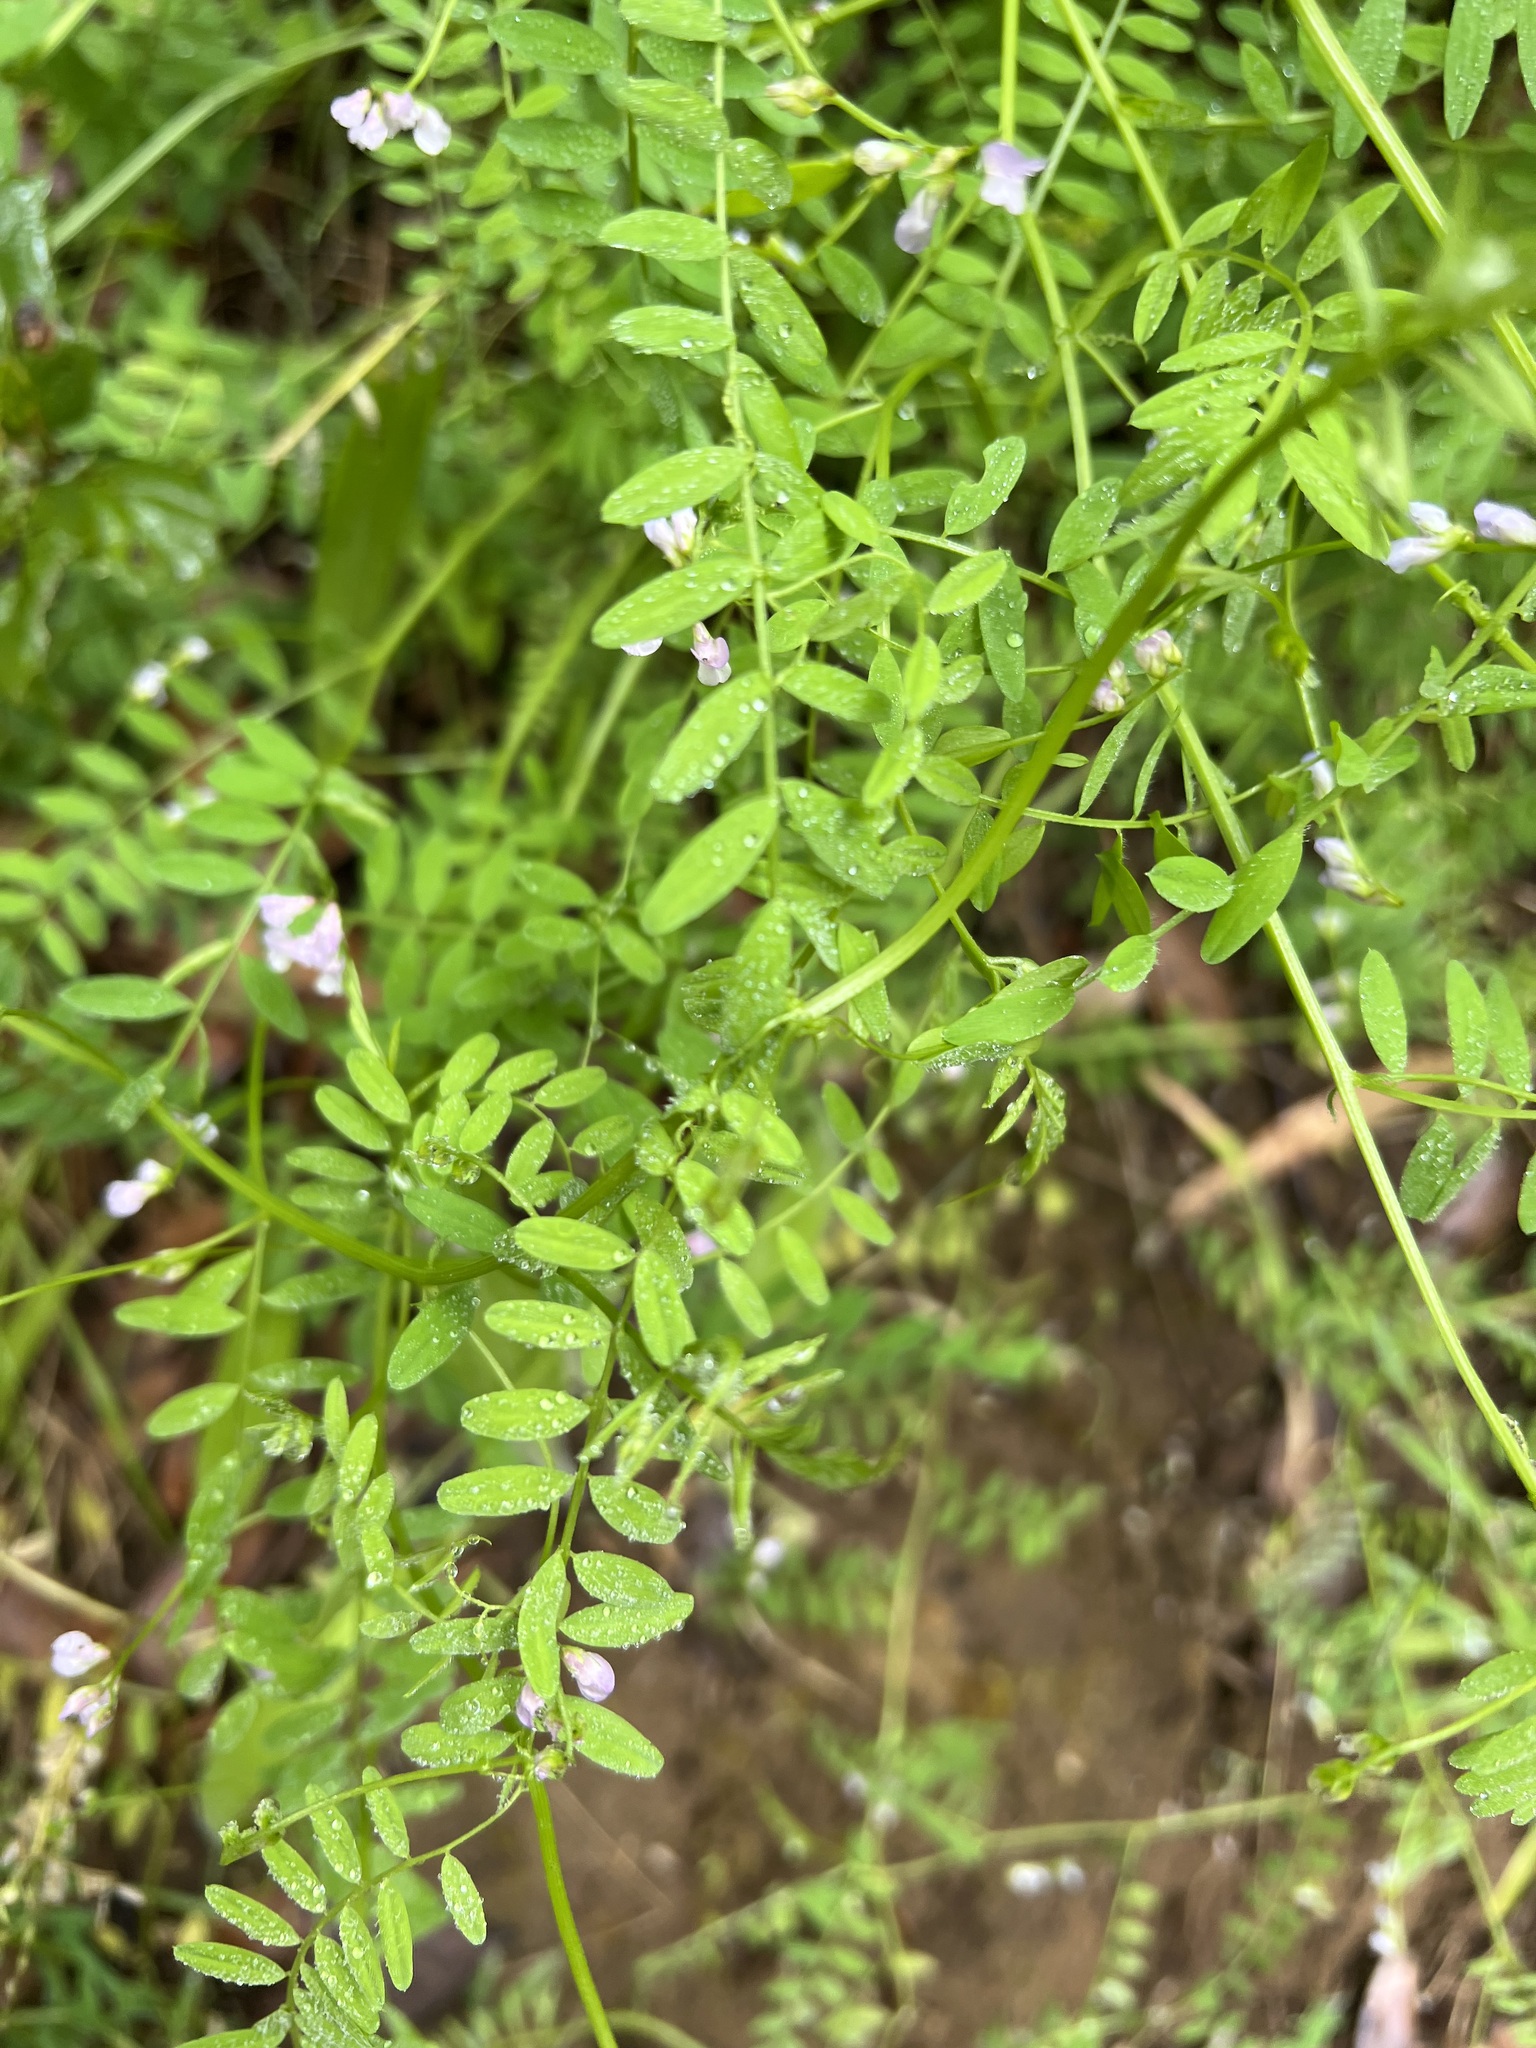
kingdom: Plantae
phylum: Tracheophyta
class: Magnoliopsida
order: Fabales
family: Fabaceae
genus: Vicia
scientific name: Vicia disperma
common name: European vetch
